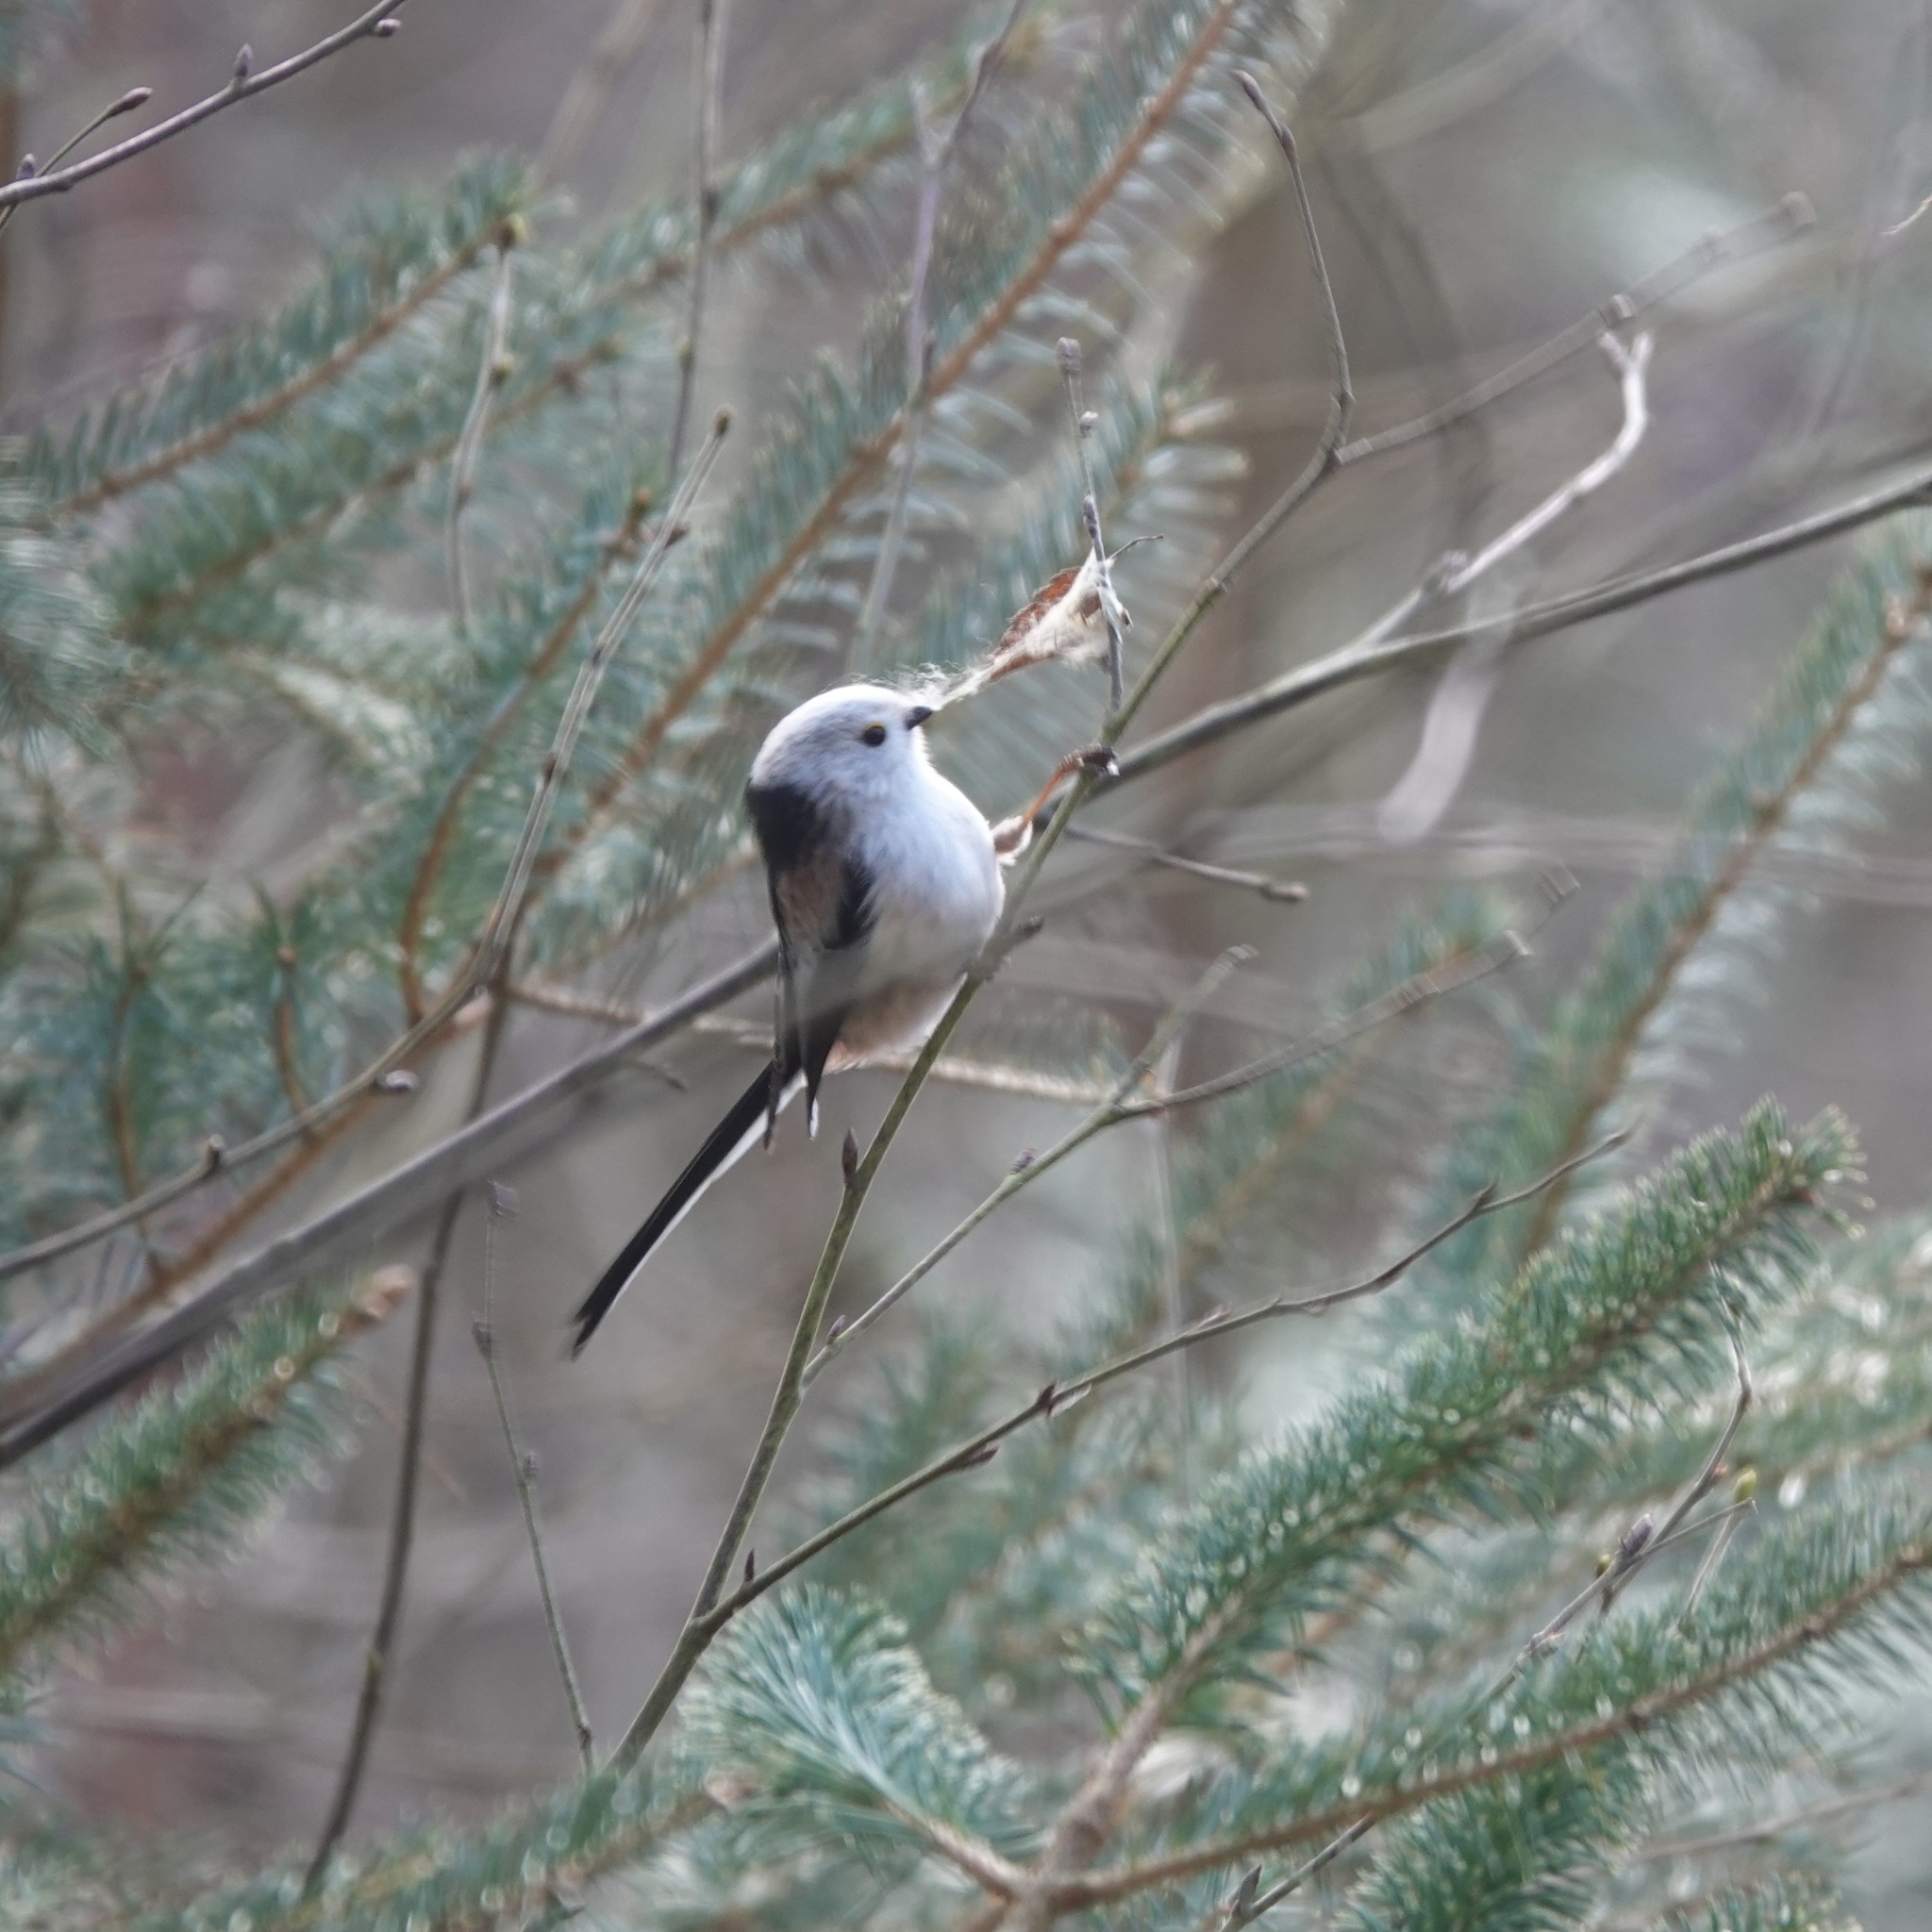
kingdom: Animalia
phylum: Chordata
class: Aves
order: Passeriformes
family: Aegithalidae
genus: Aegithalos
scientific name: Aegithalos caudatus
